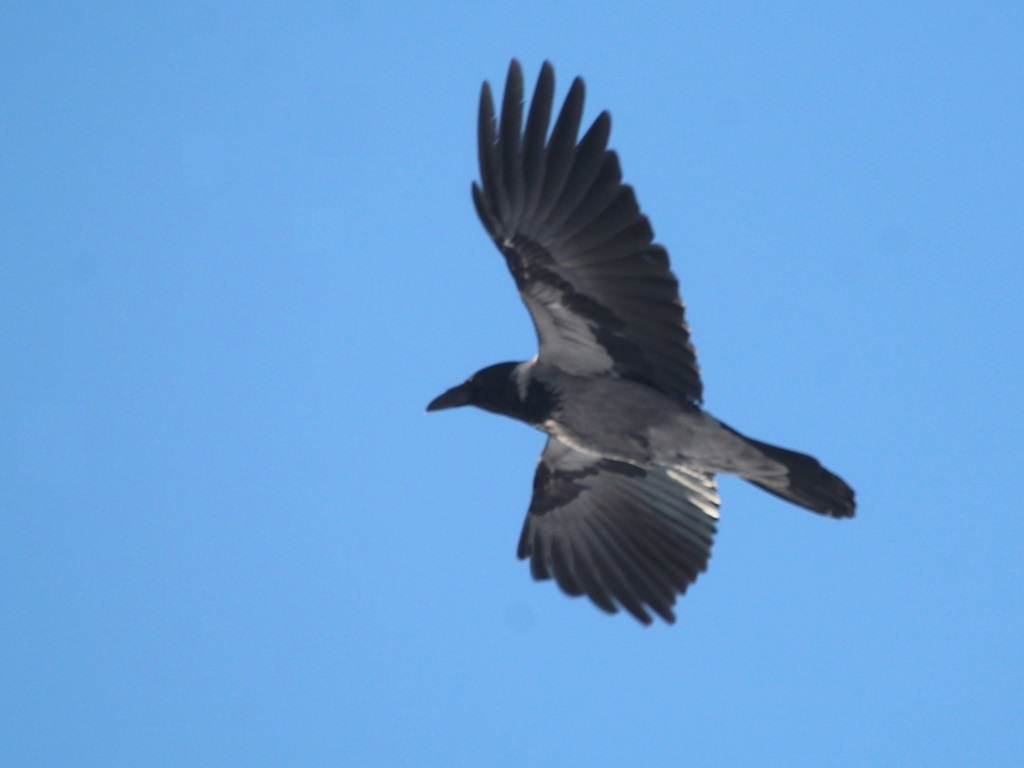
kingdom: Animalia
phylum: Chordata
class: Aves
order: Passeriformes
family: Corvidae
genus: Corvus
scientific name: Corvus cornix
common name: Hooded crow
